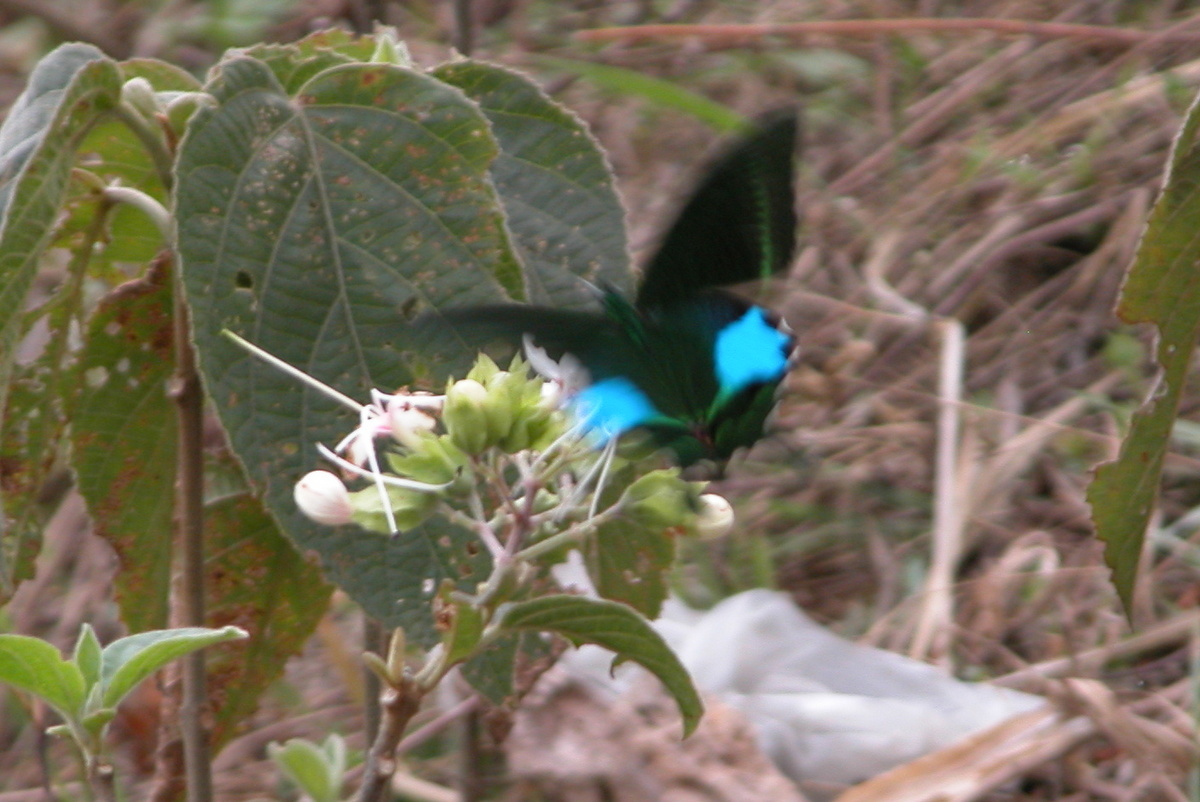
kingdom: Animalia
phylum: Arthropoda
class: Insecta
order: Lepidoptera
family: Papilionidae
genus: Papilio
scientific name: Papilio paris
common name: Paris peacock
